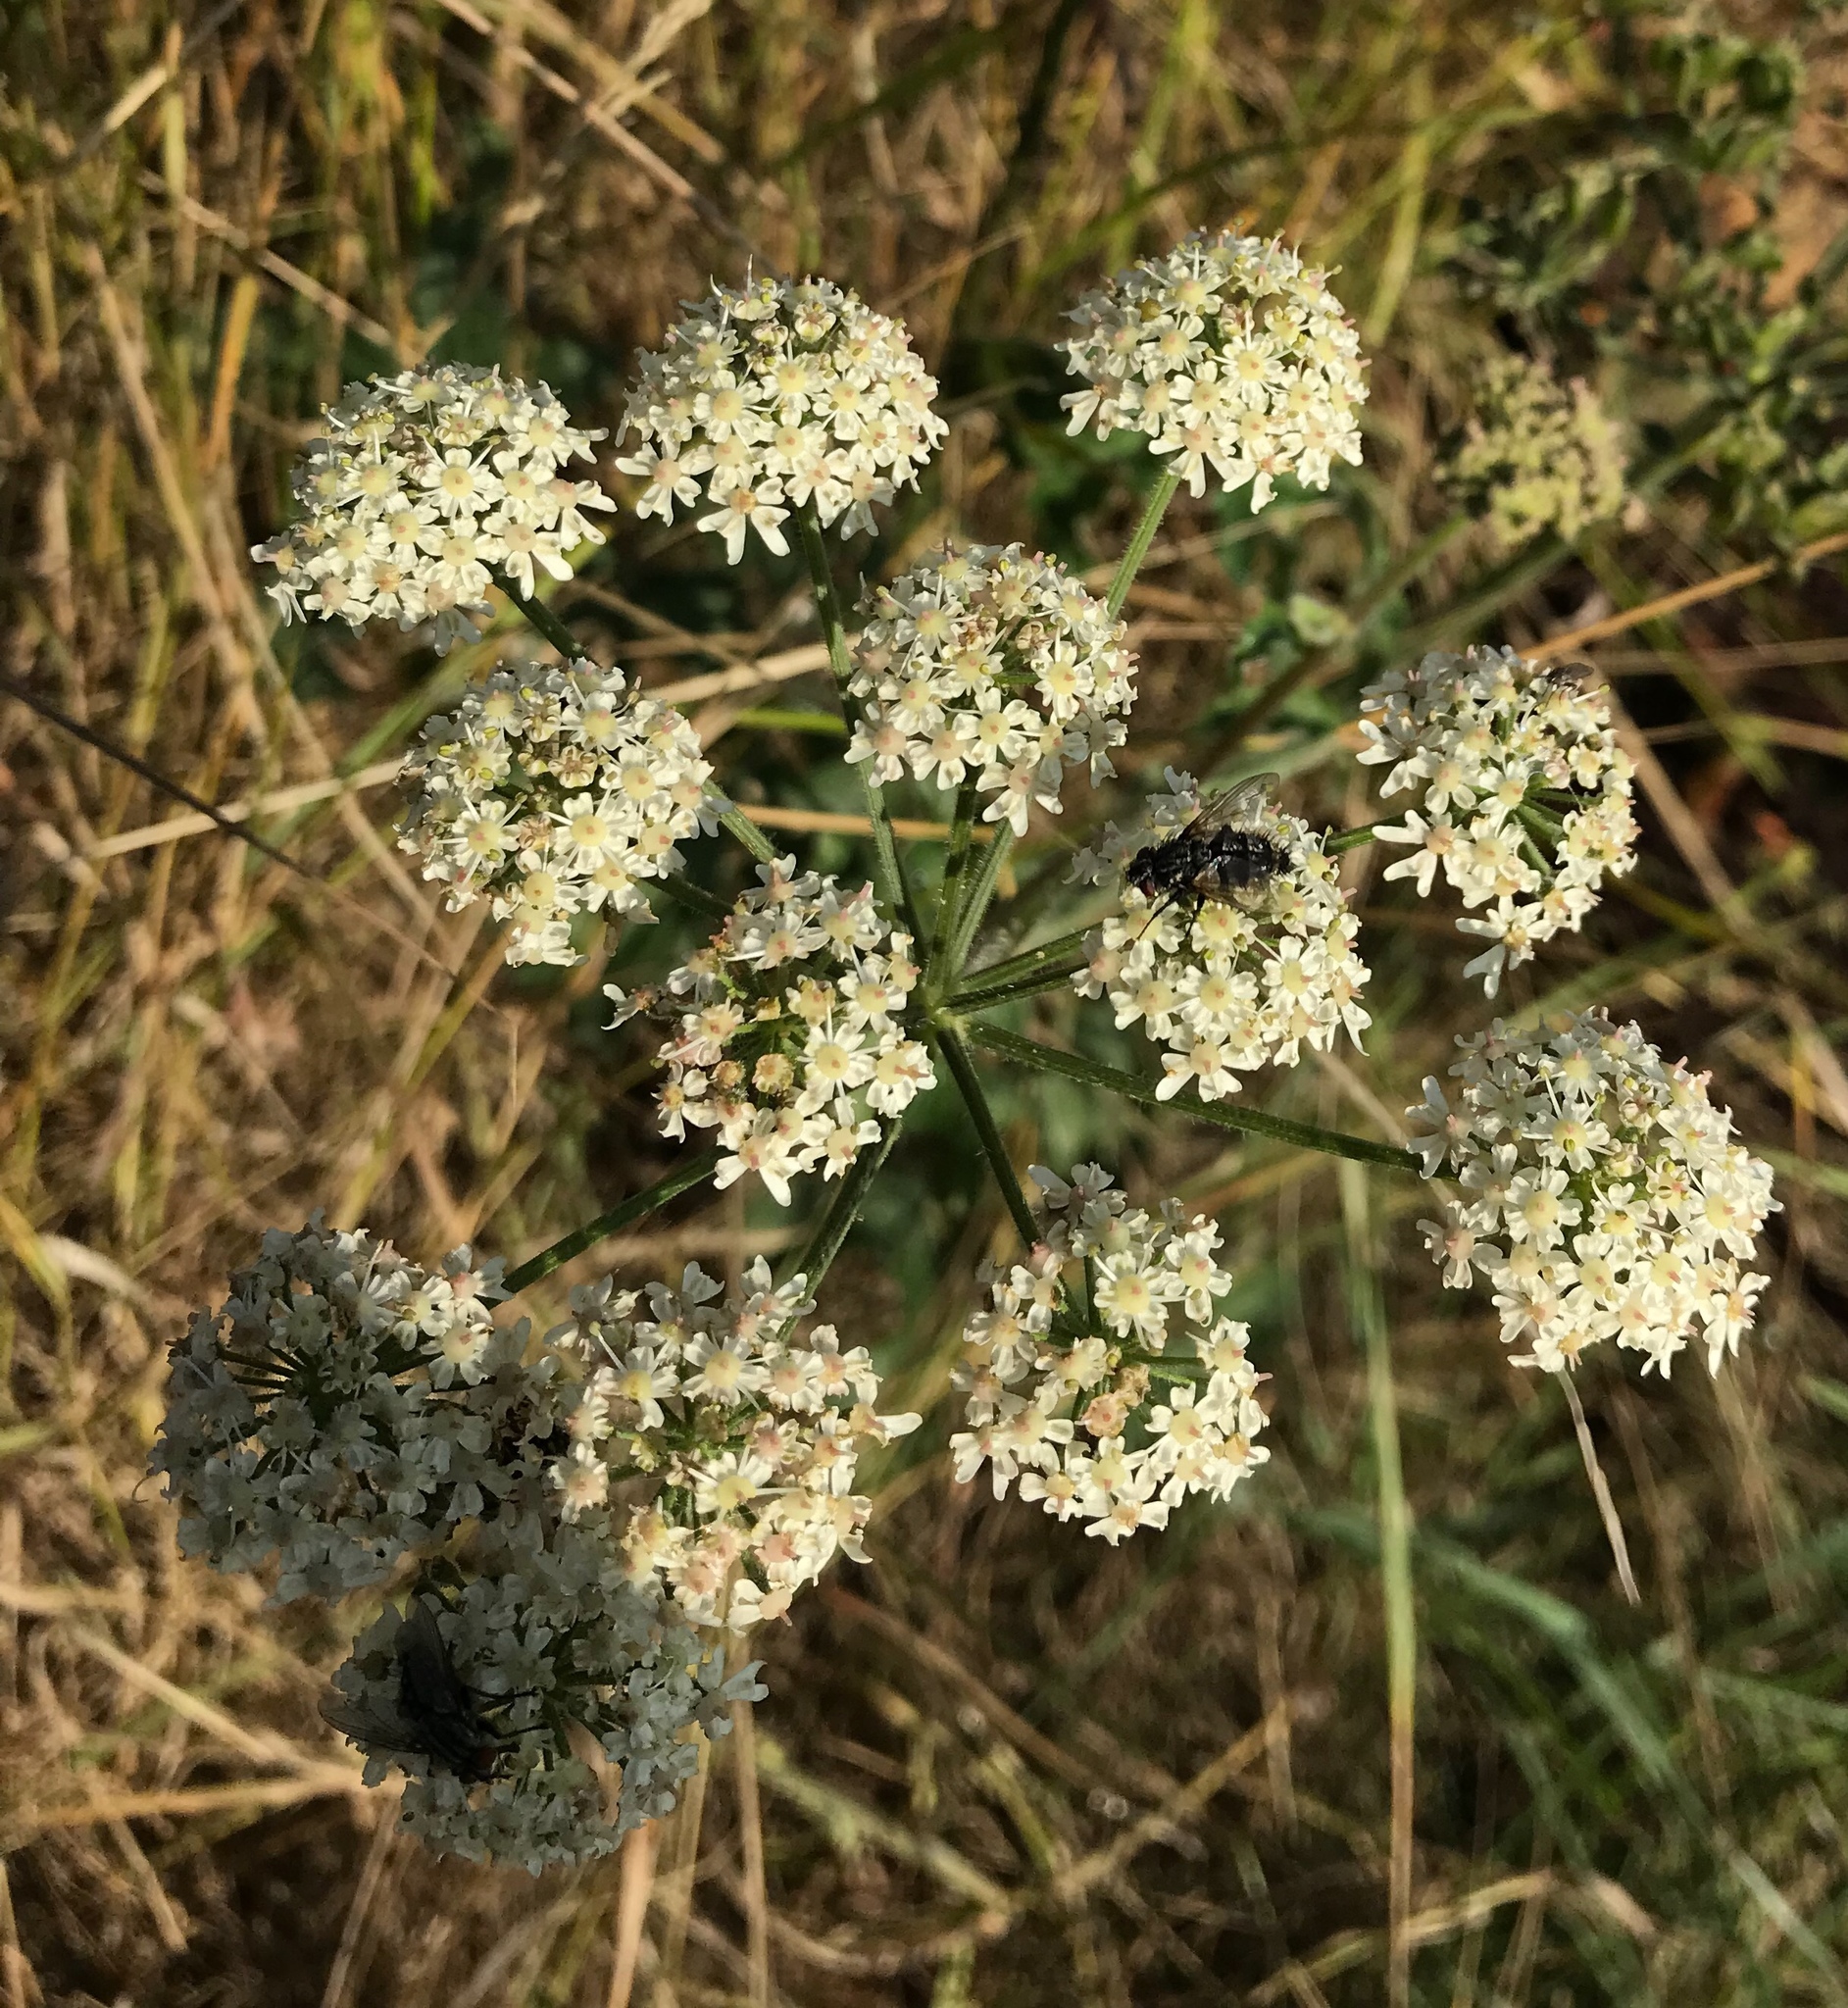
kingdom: Plantae
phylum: Tracheophyta
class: Magnoliopsida
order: Apiales
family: Apiaceae
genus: Heracleum
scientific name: Heracleum sphondylium
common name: Hogweed
